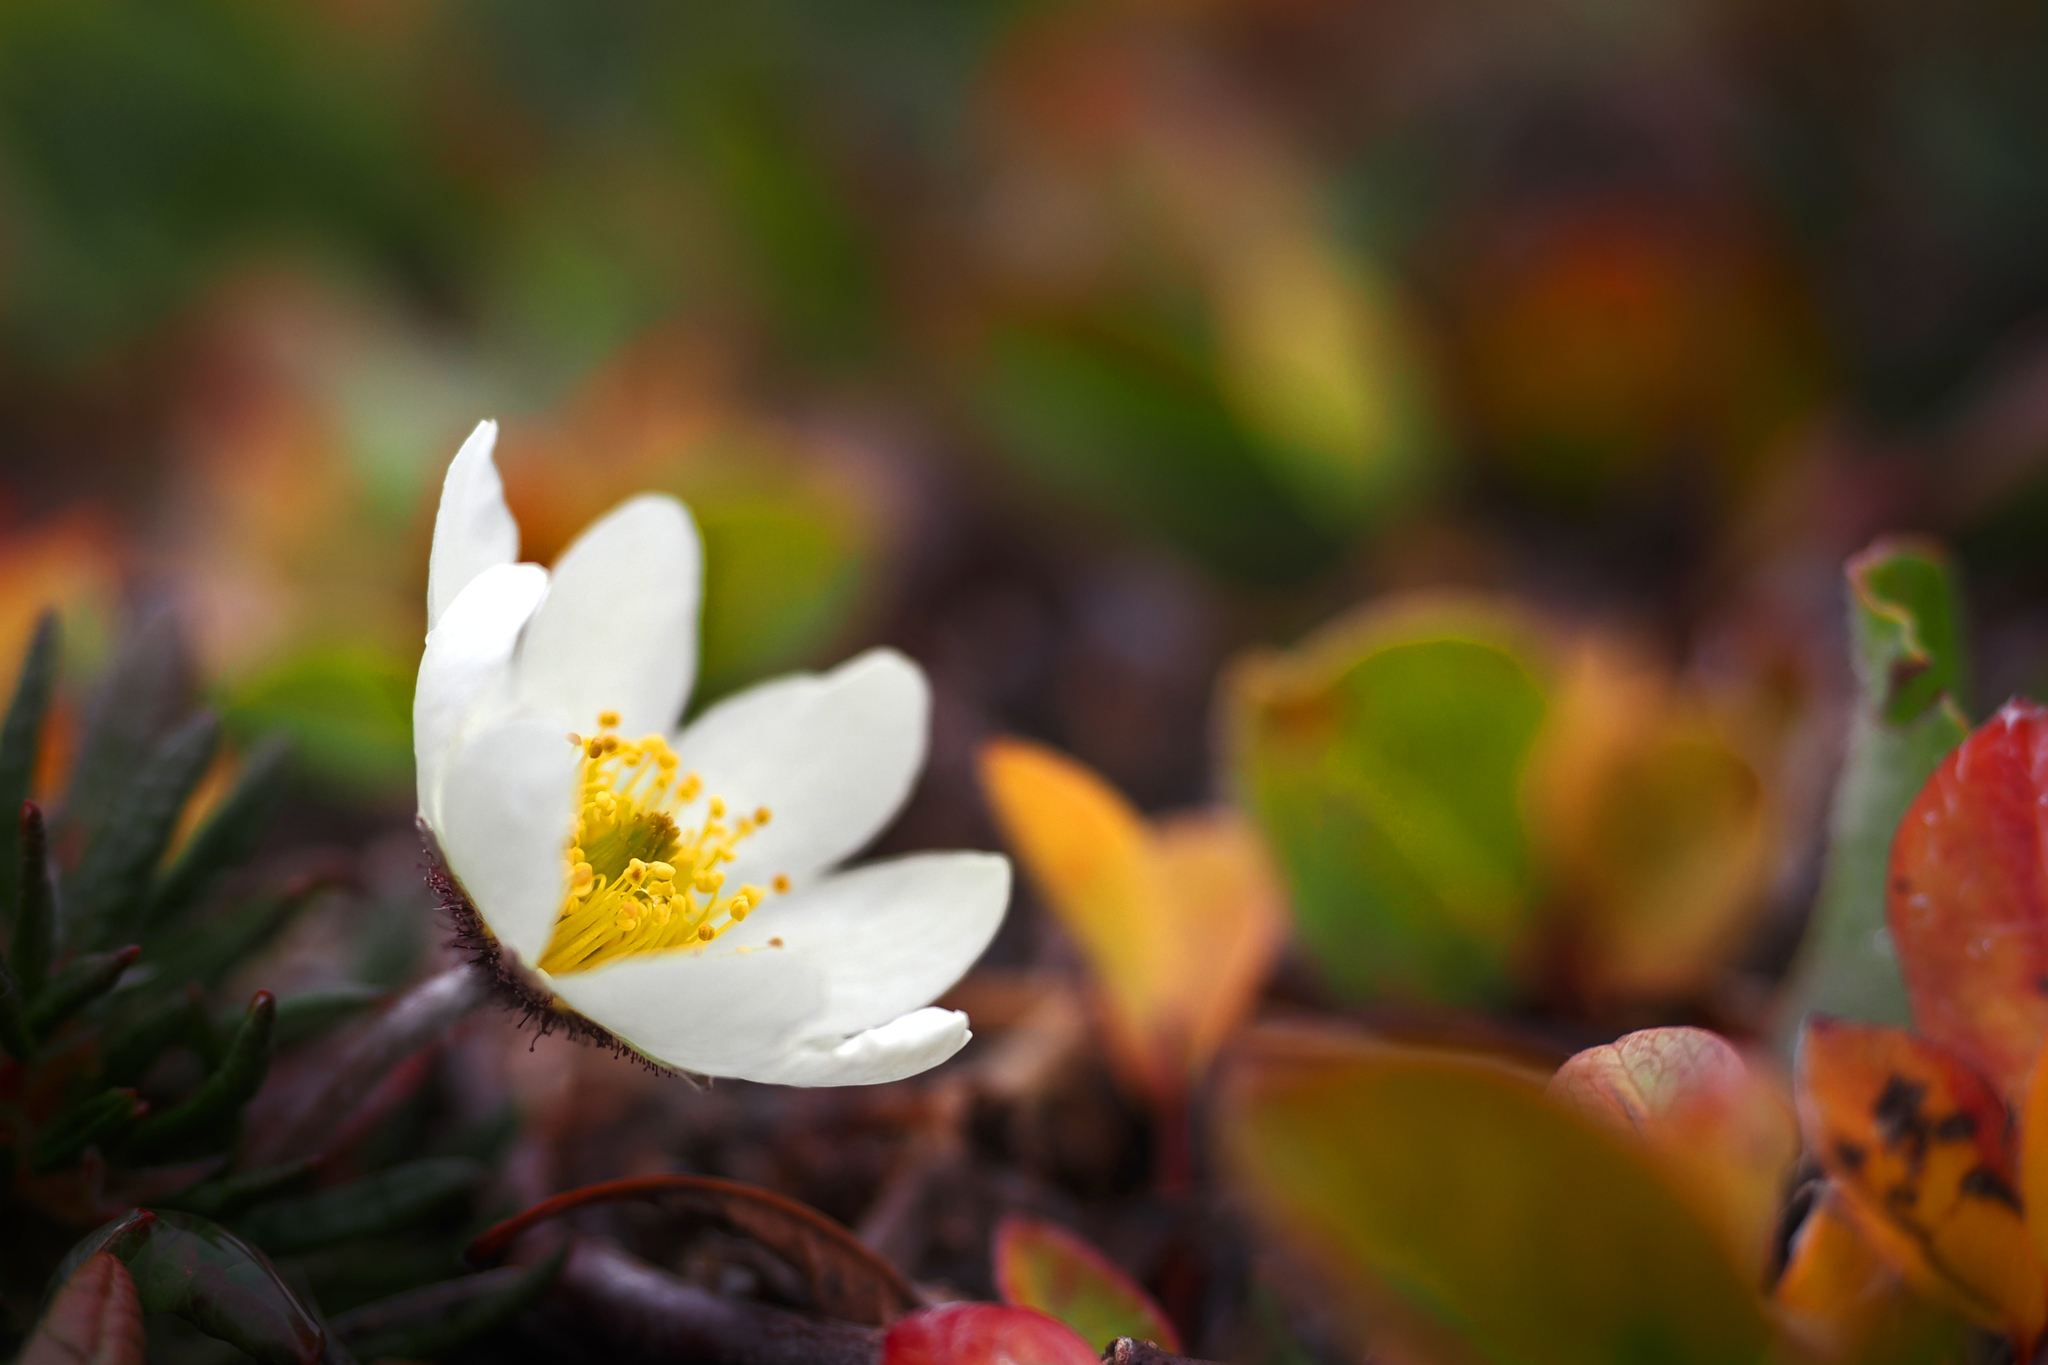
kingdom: Plantae
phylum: Tracheophyta
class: Magnoliopsida
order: Rosales
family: Rosaceae
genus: Dryas
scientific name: Dryas integrifolia
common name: Entire-leaved mountain avens
